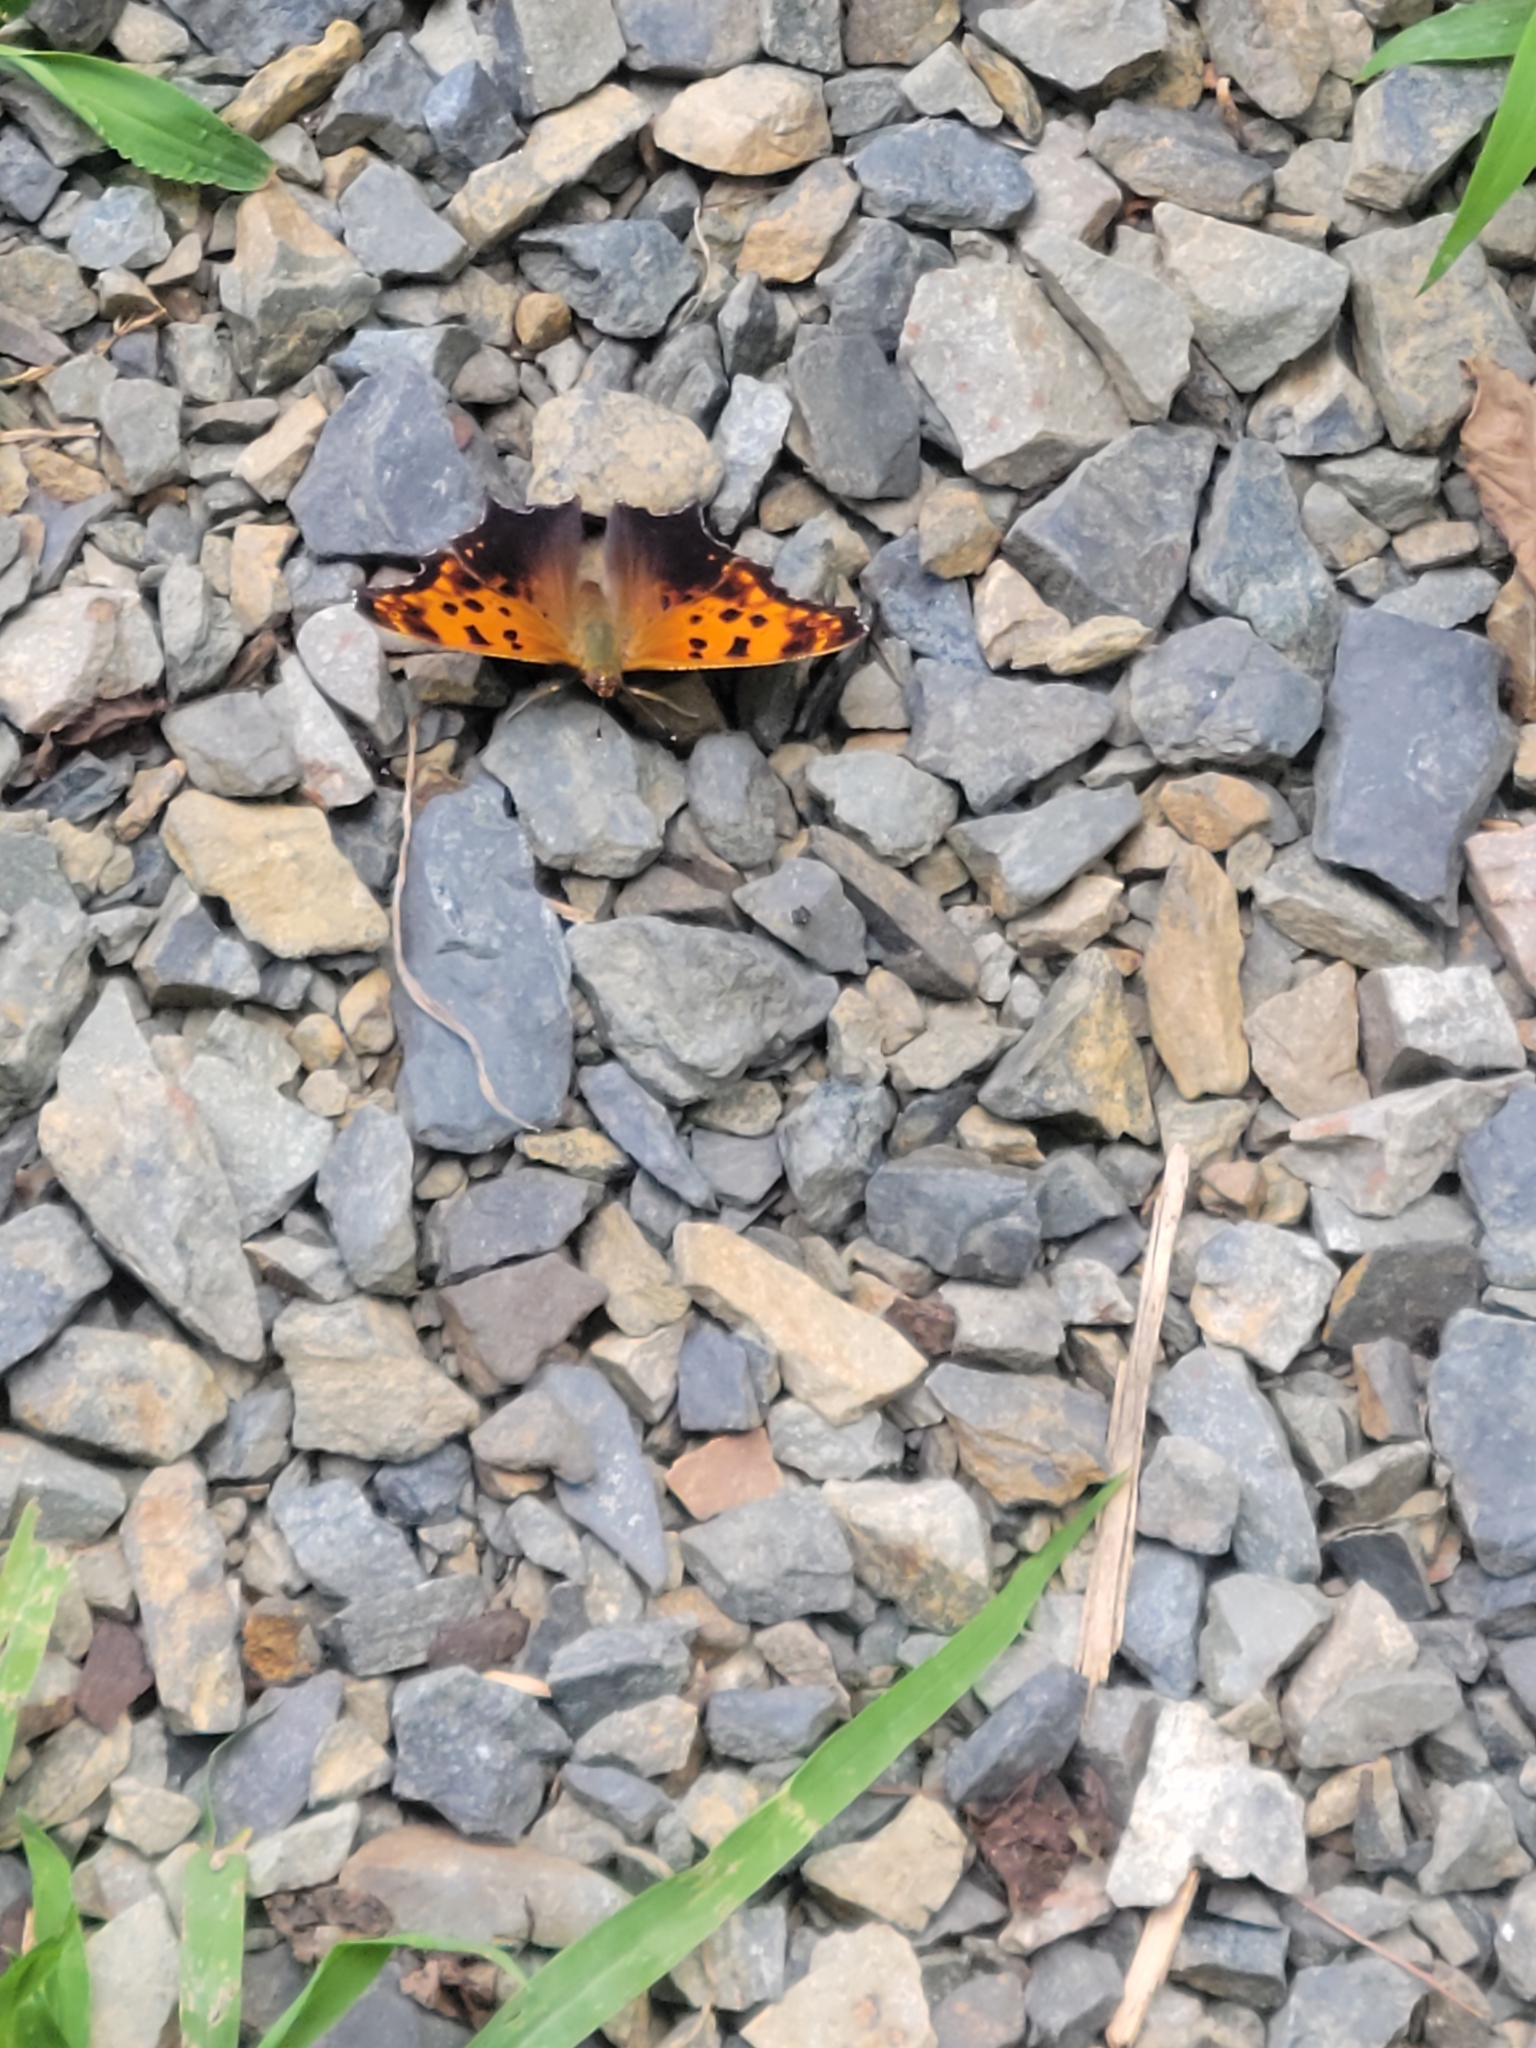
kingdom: Animalia
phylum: Arthropoda
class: Insecta
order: Lepidoptera
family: Nymphalidae
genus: Polygonia
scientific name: Polygonia comma
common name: Eastern comma
